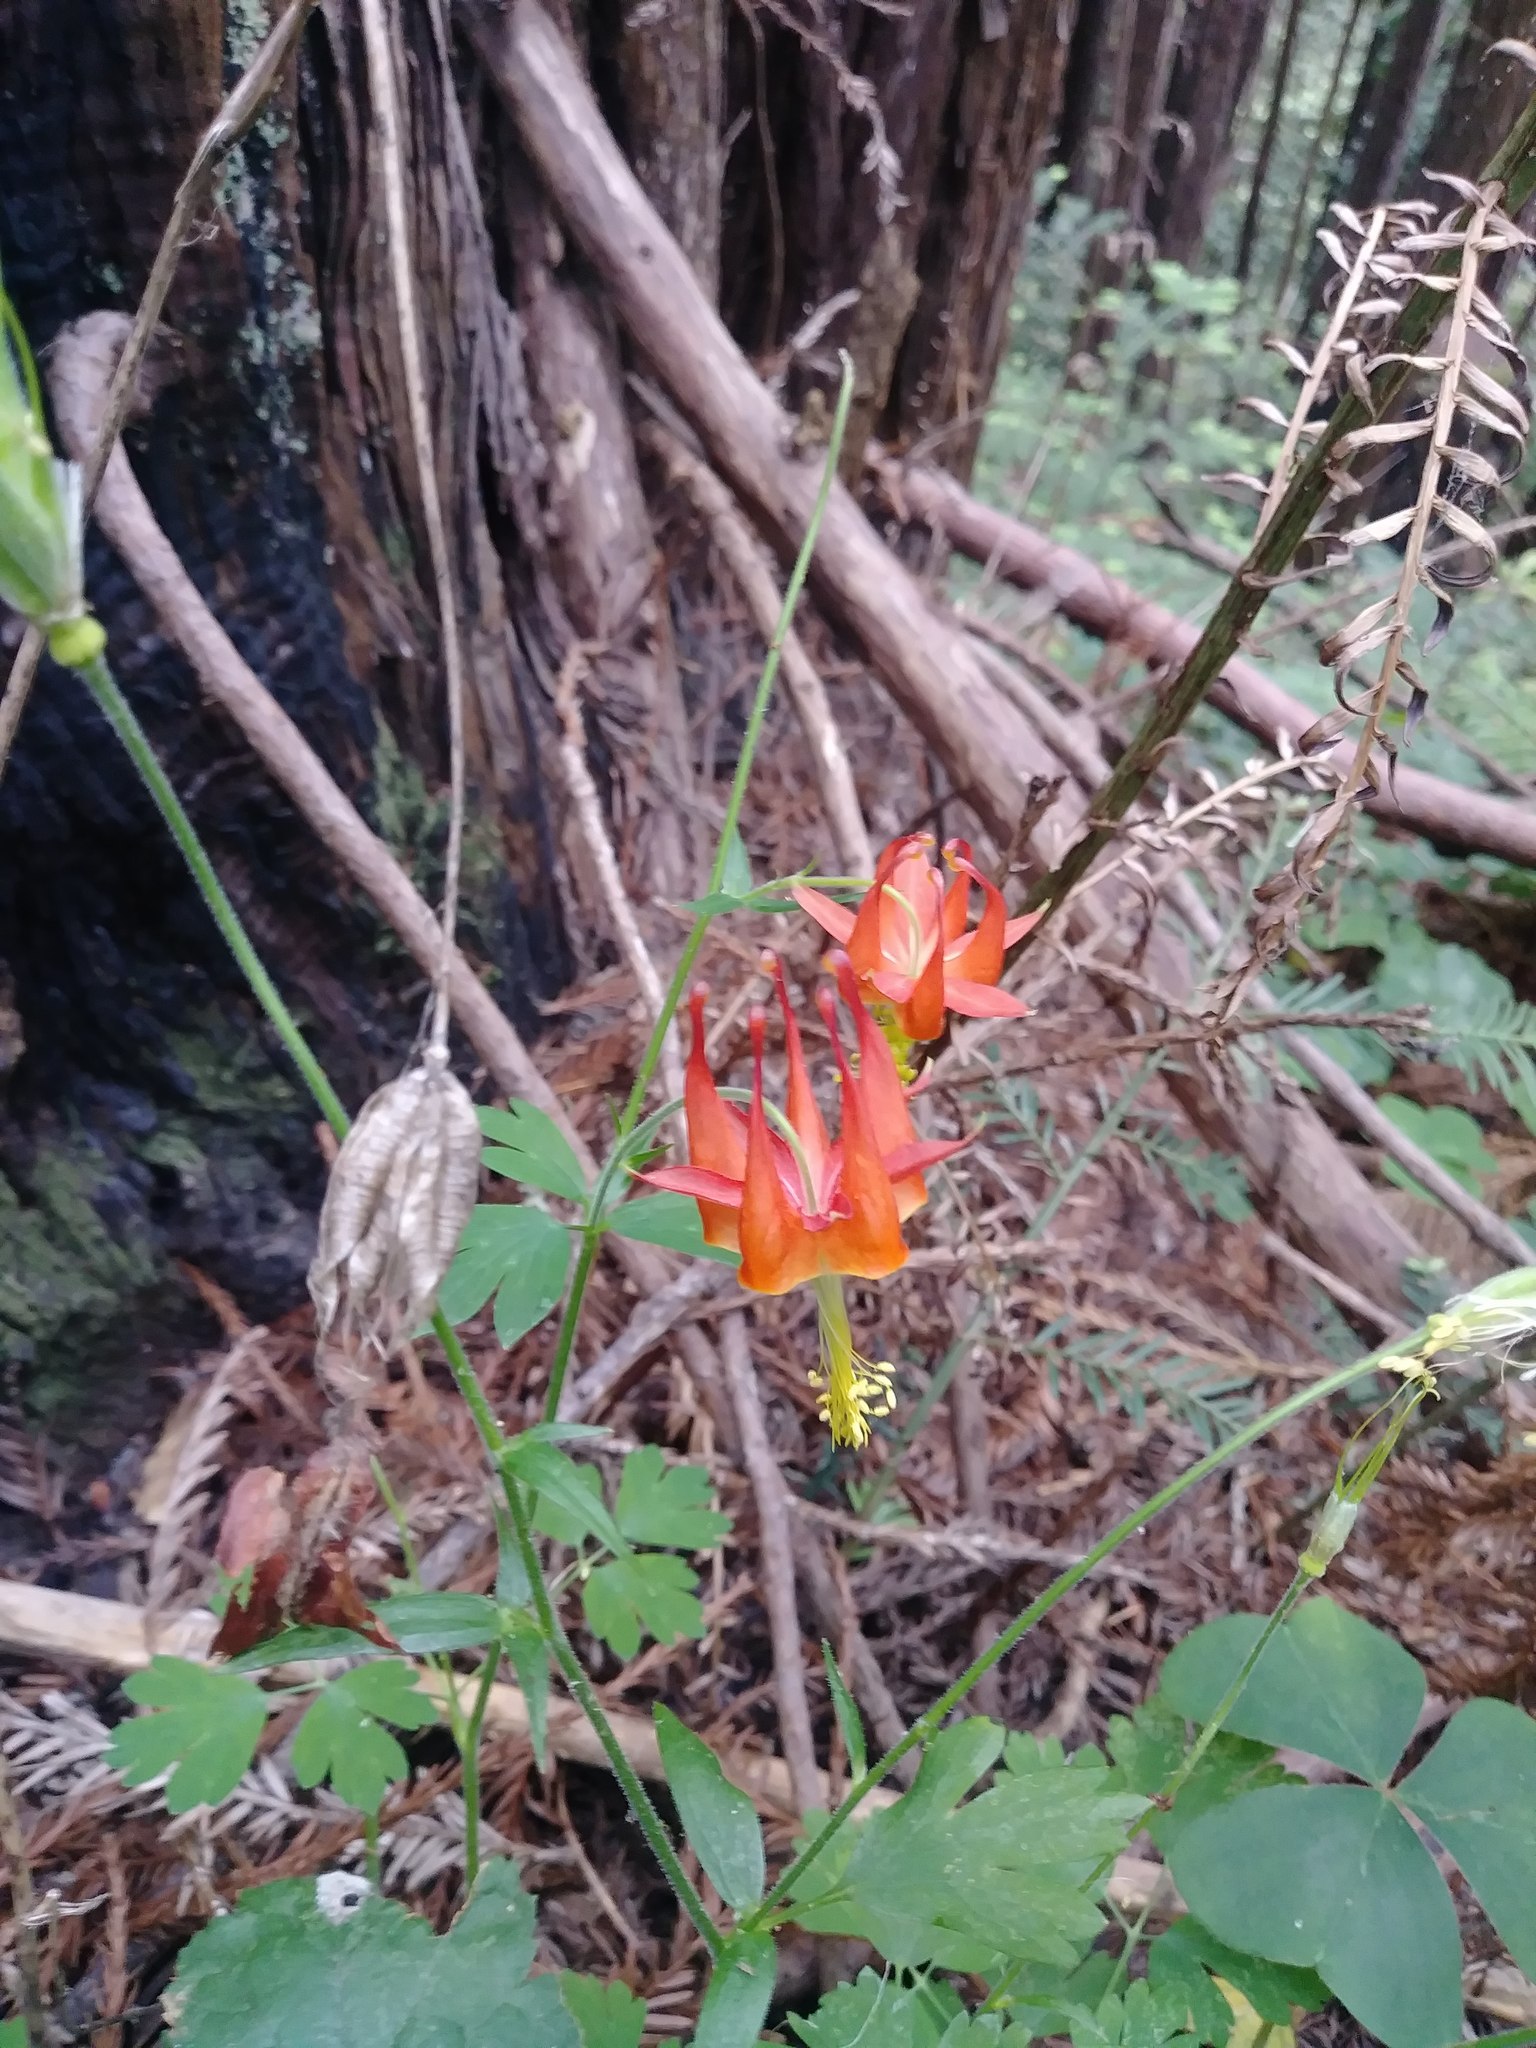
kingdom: Plantae
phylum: Tracheophyta
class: Magnoliopsida
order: Ranunculales
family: Ranunculaceae
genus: Aquilegia
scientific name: Aquilegia formosa
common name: Sitka columbine
